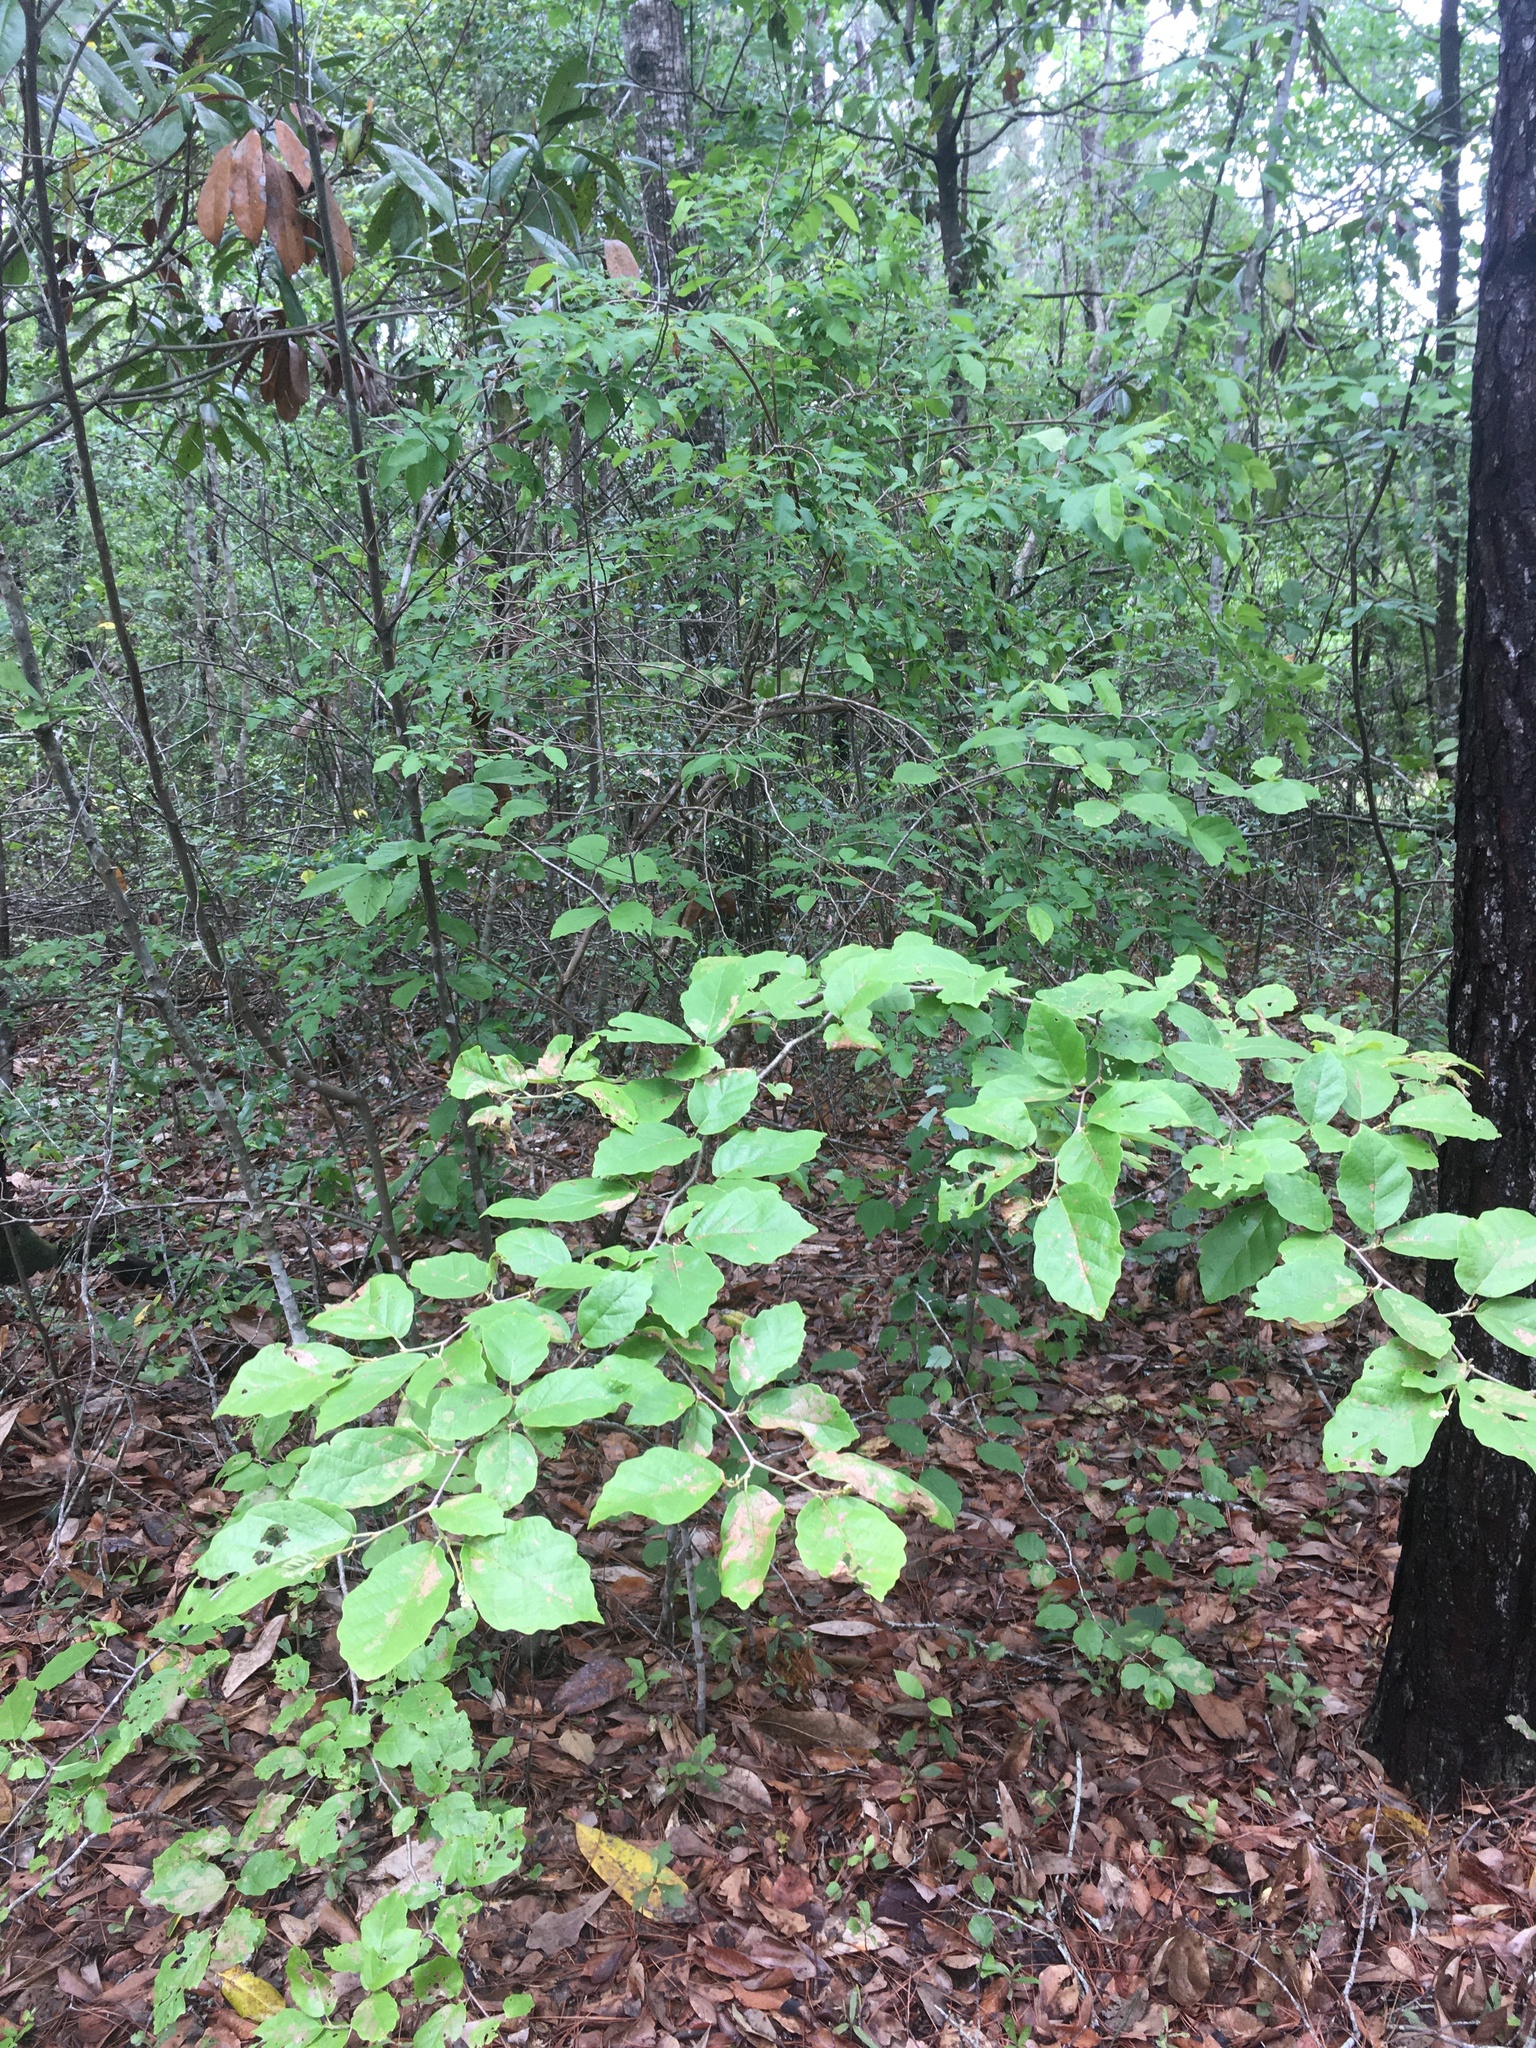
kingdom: Plantae
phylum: Tracheophyta
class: Magnoliopsida
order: Saxifragales
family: Hamamelidaceae
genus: Hamamelis
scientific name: Hamamelis virginiana
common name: Witch-hazel
